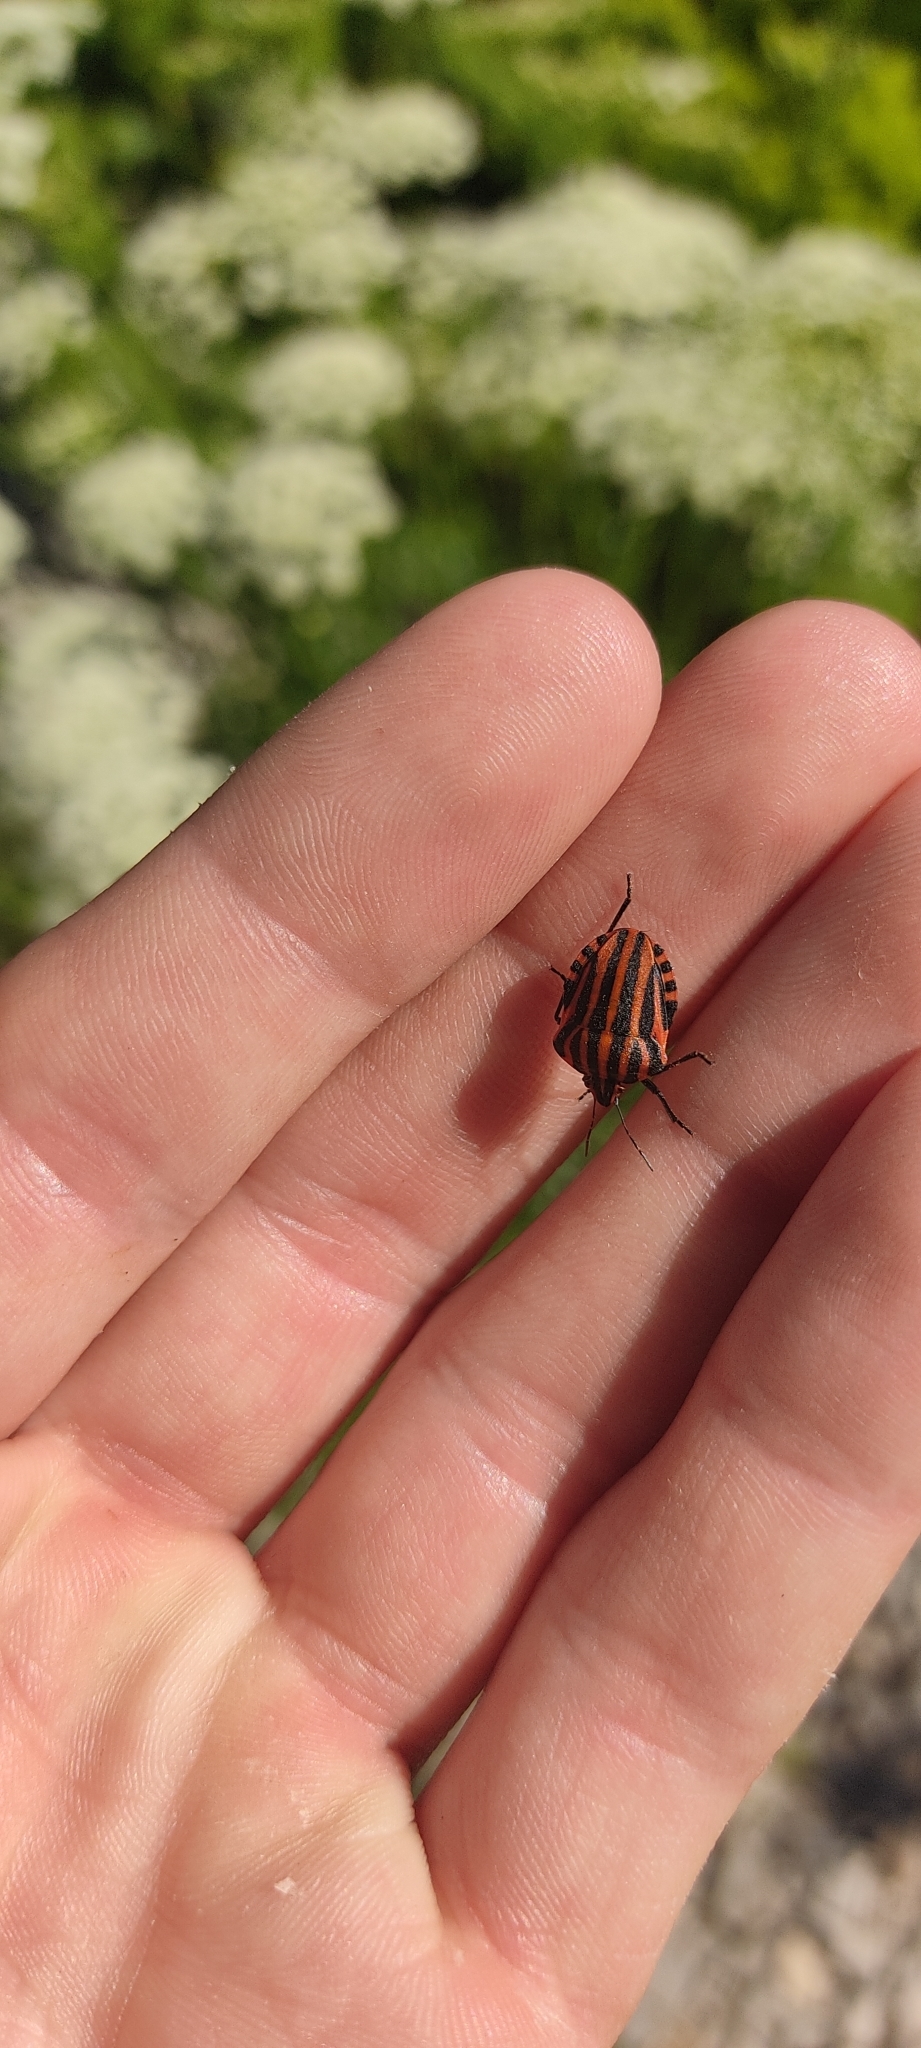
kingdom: Animalia
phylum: Arthropoda
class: Insecta
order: Hemiptera
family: Pentatomidae
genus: Graphosoma
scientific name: Graphosoma italicum
